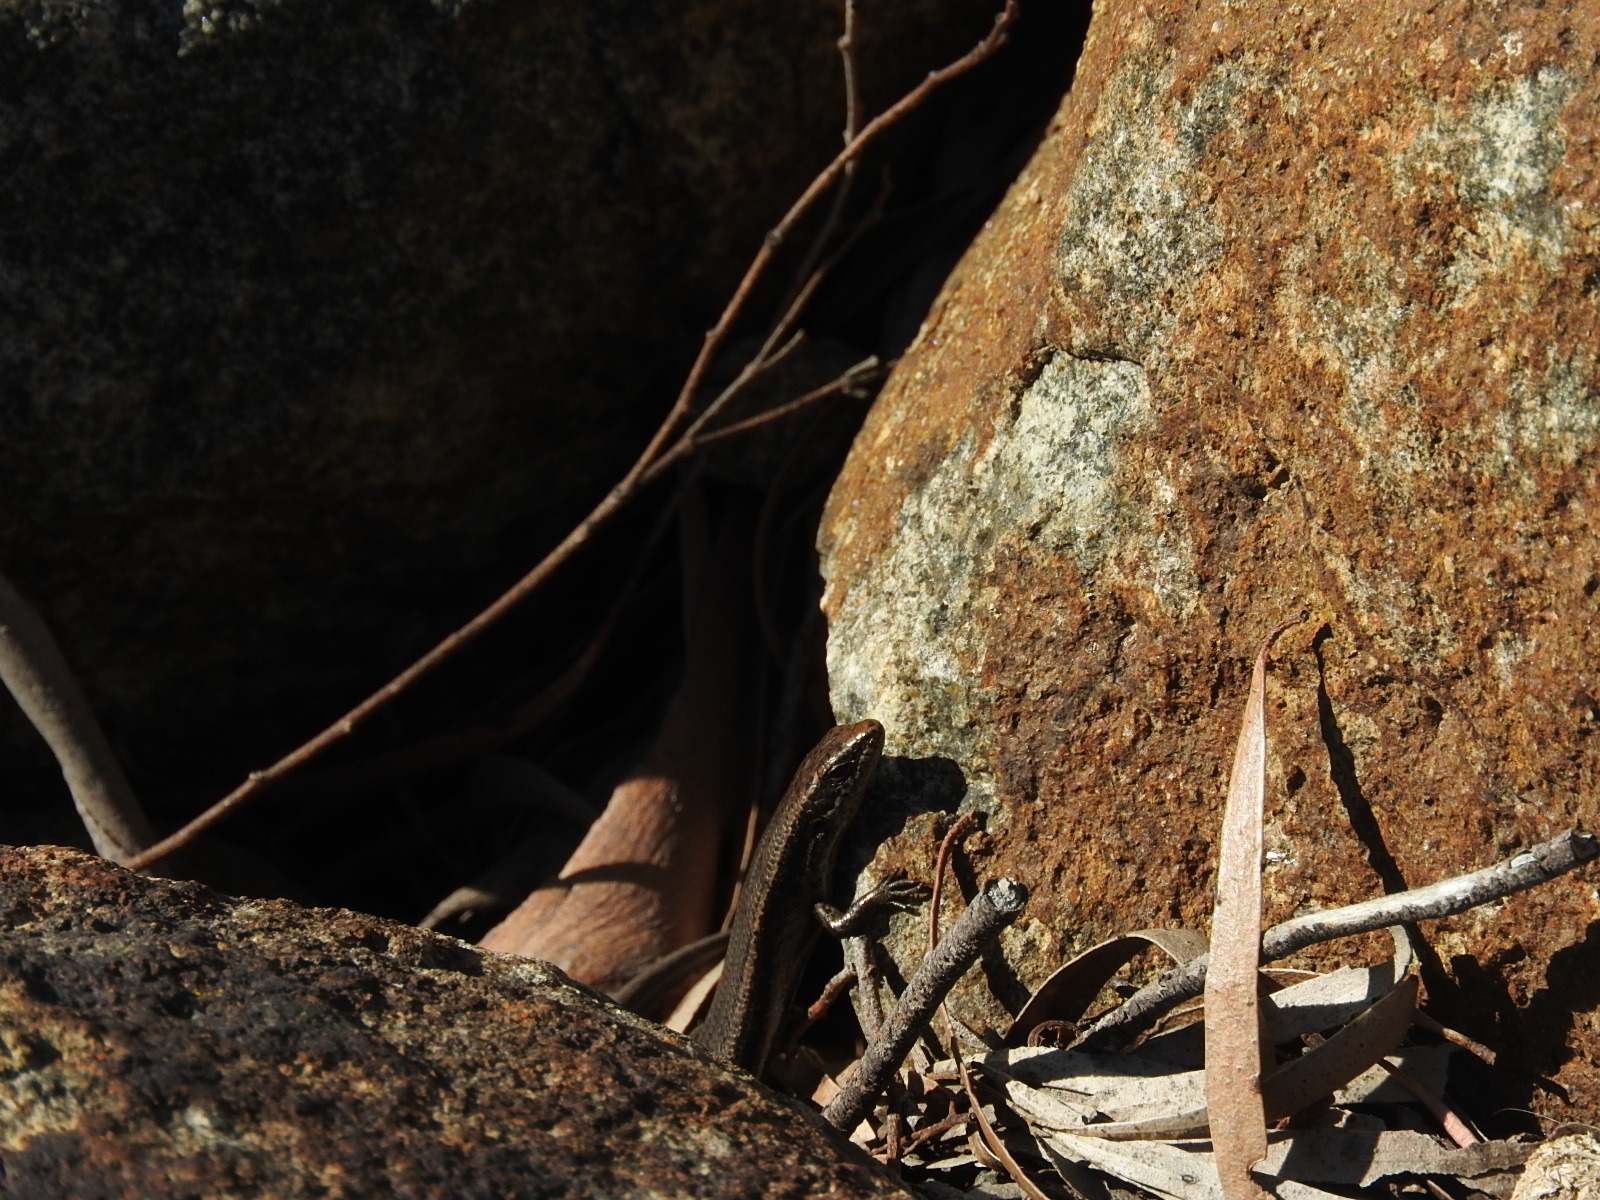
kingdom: Animalia
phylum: Chordata
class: Squamata
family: Scincidae
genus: Carinascincus
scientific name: Carinascincus metallicus
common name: Metallic cool-skink
